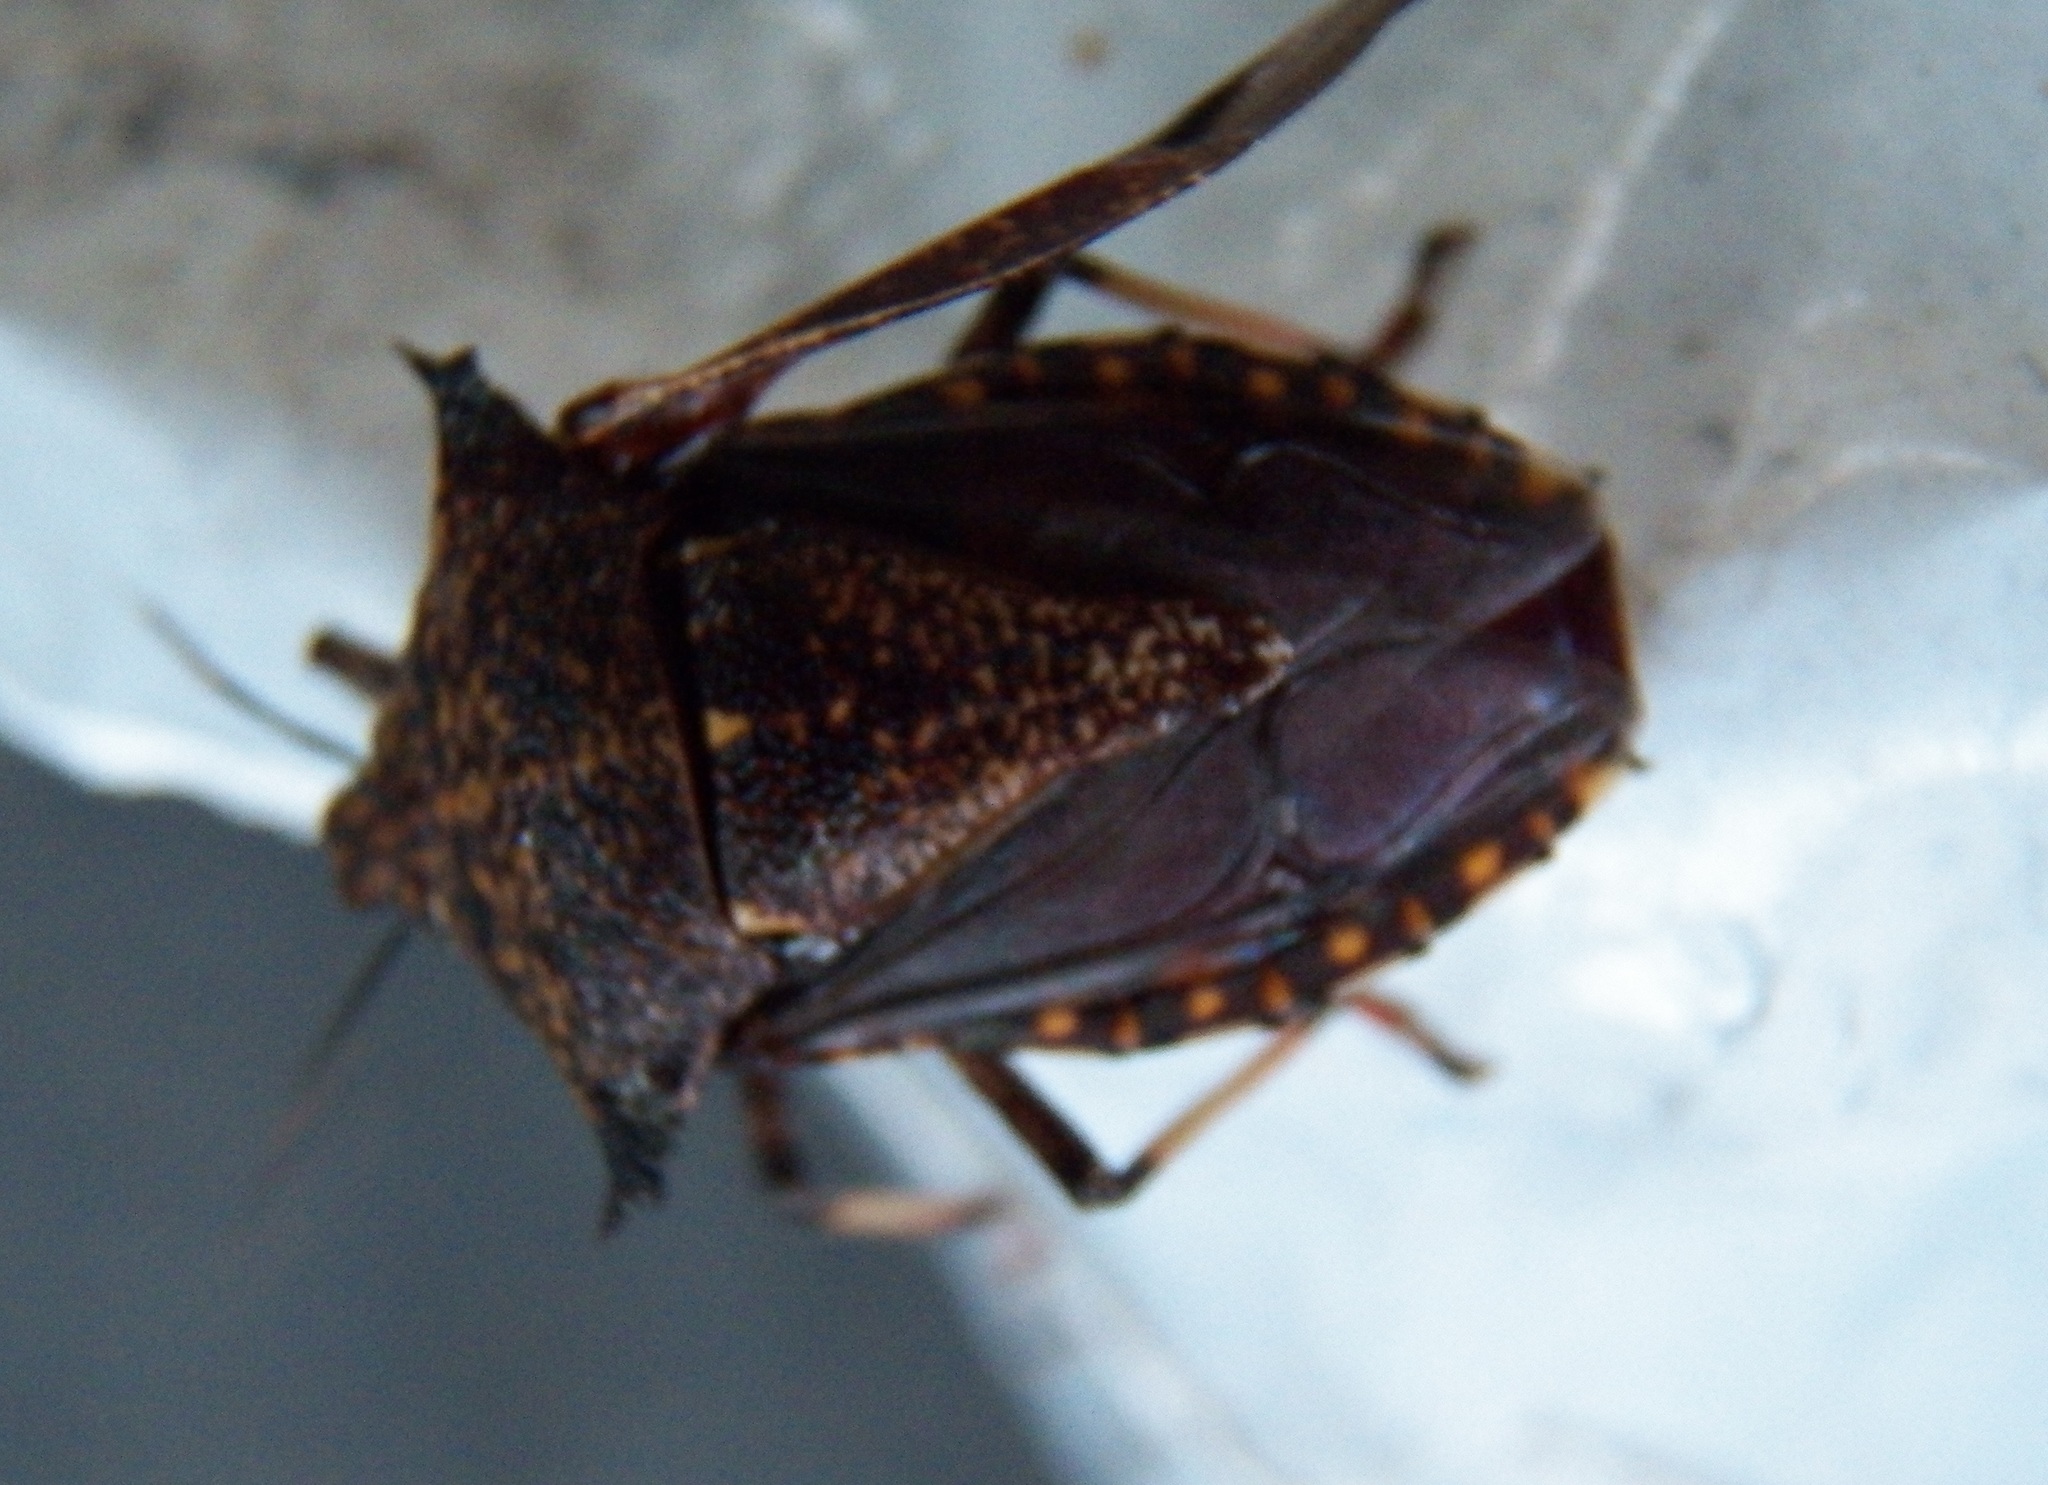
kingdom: Animalia
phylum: Arthropoda
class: Insecta
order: Hemiptera
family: Pentatomidae
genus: Alcaeorrhynchus
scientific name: Alcaeorrhynchus grandis
